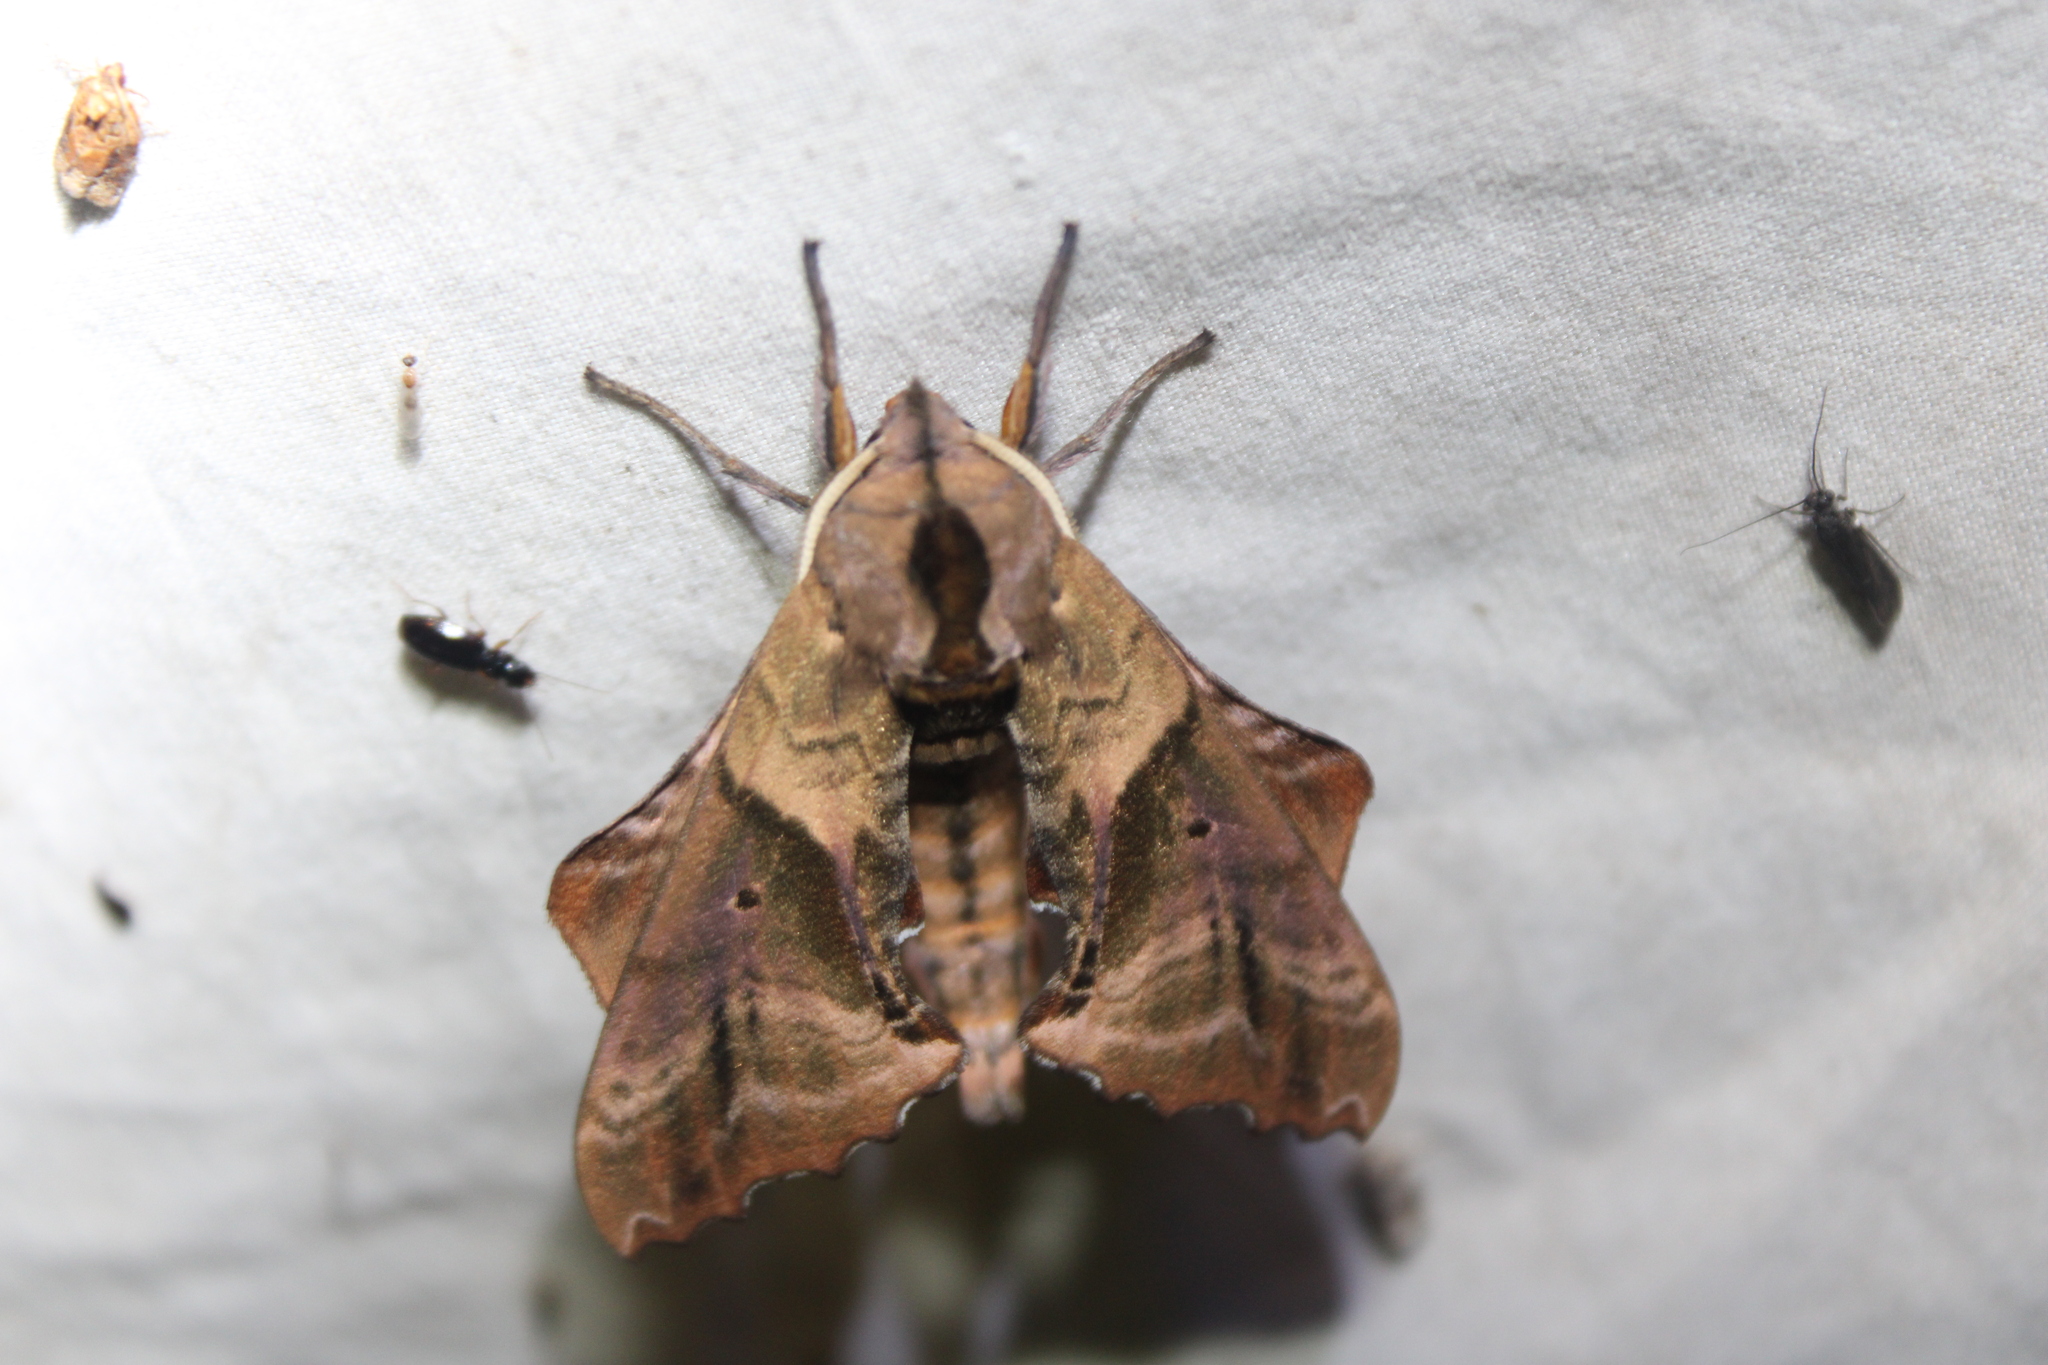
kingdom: Animalia
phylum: Arthropoda
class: Insecta
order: Lepidoptera
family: Sphingidae
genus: Paonias
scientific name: Paonias excaecata
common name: Blind-eyed sphinx
